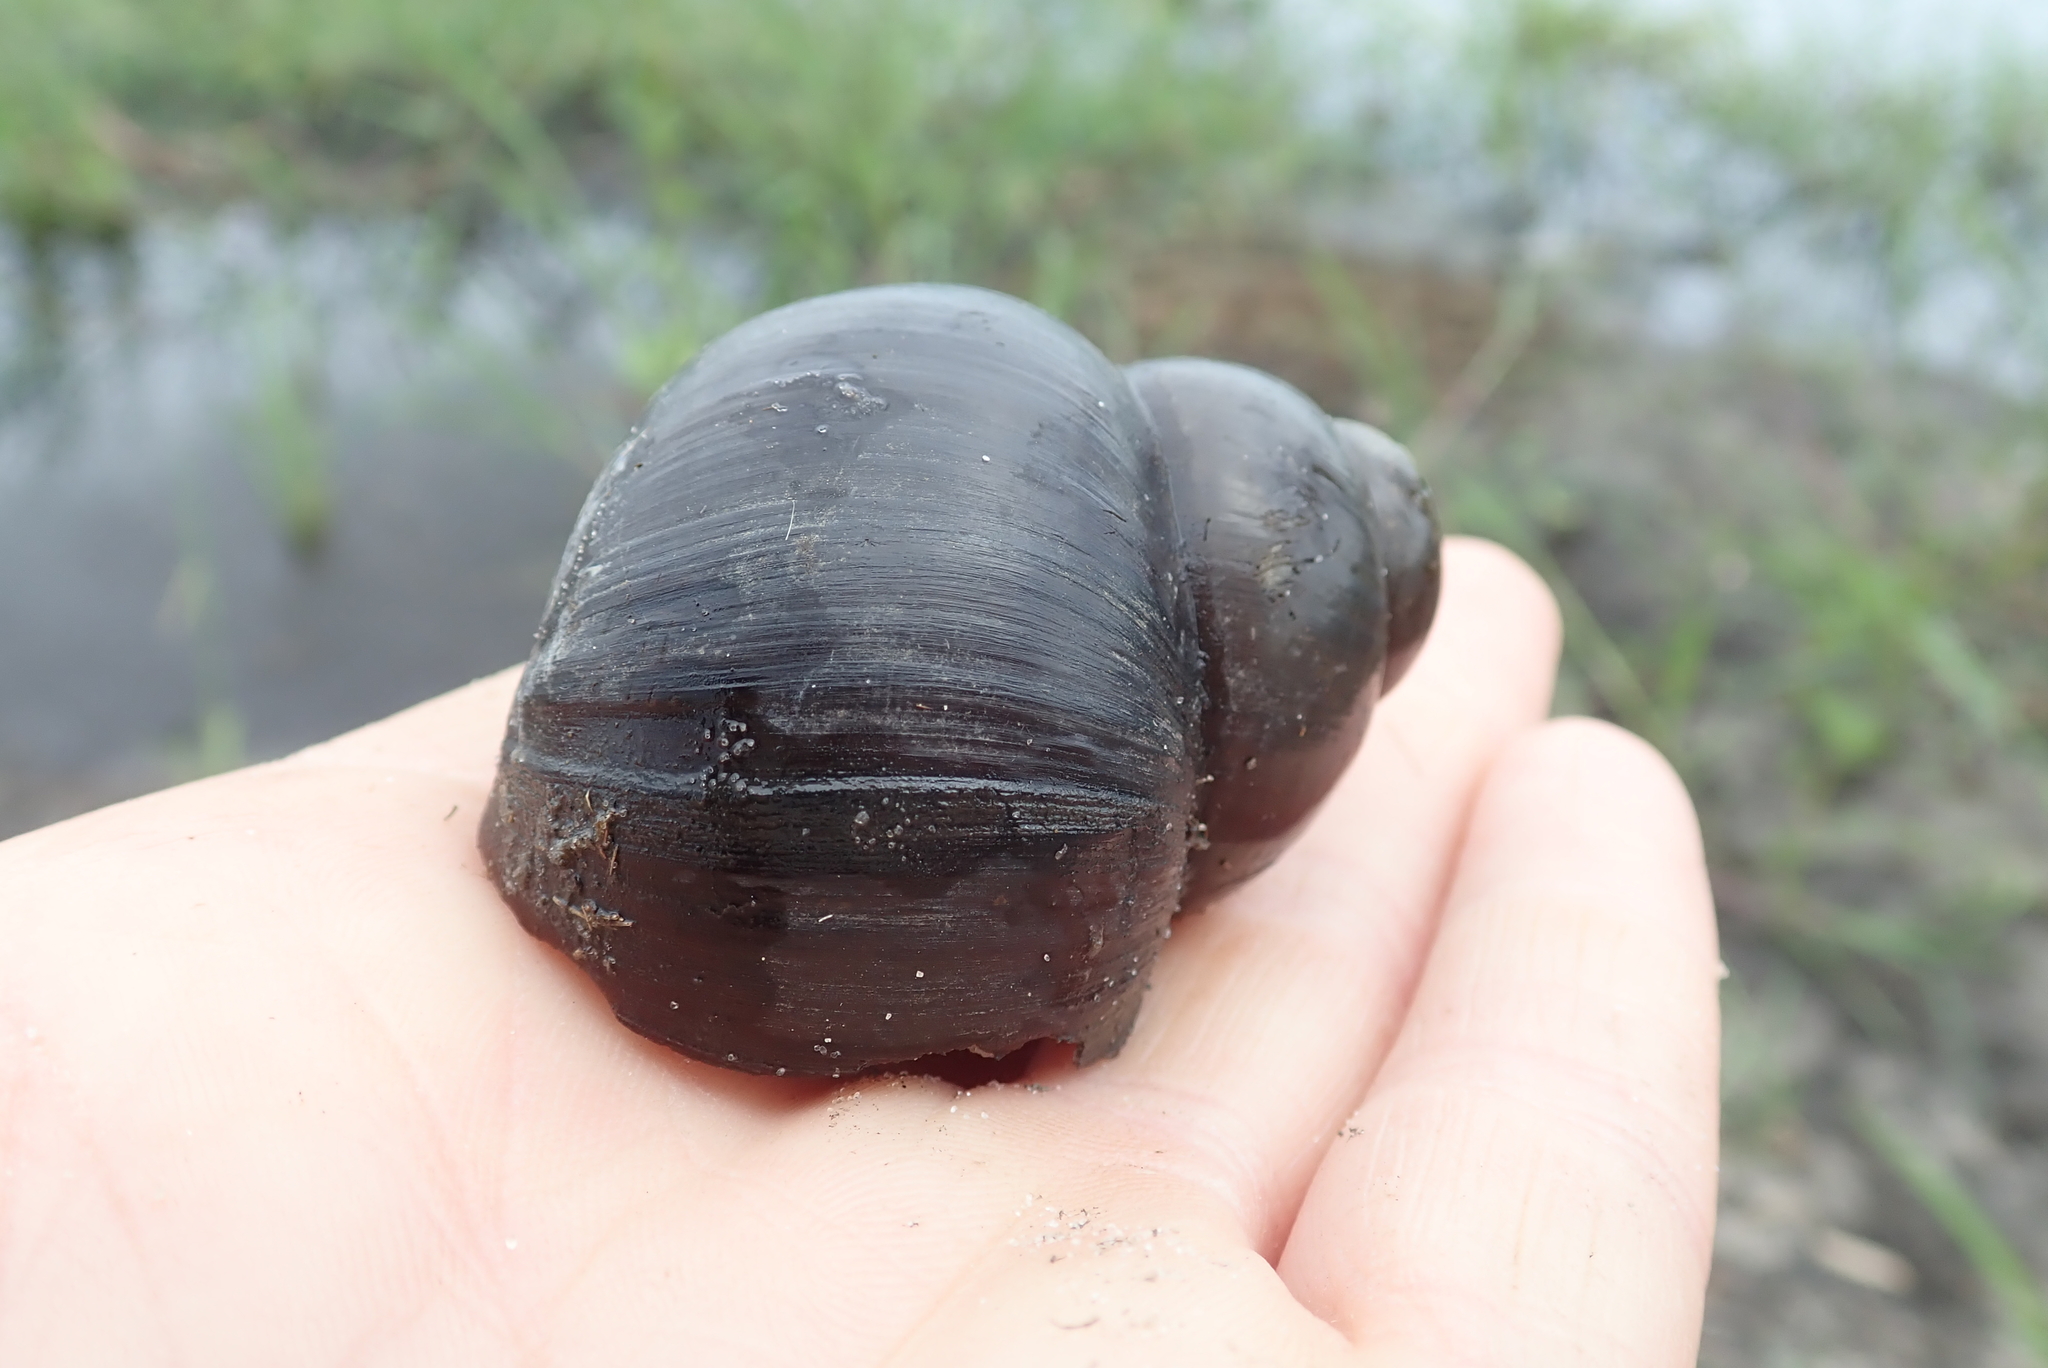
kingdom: Animalia
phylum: Mollusca
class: Gastropoda
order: Architaenioglossa
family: Ampullariidae
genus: Lanistes
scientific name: Lanistes ovum
